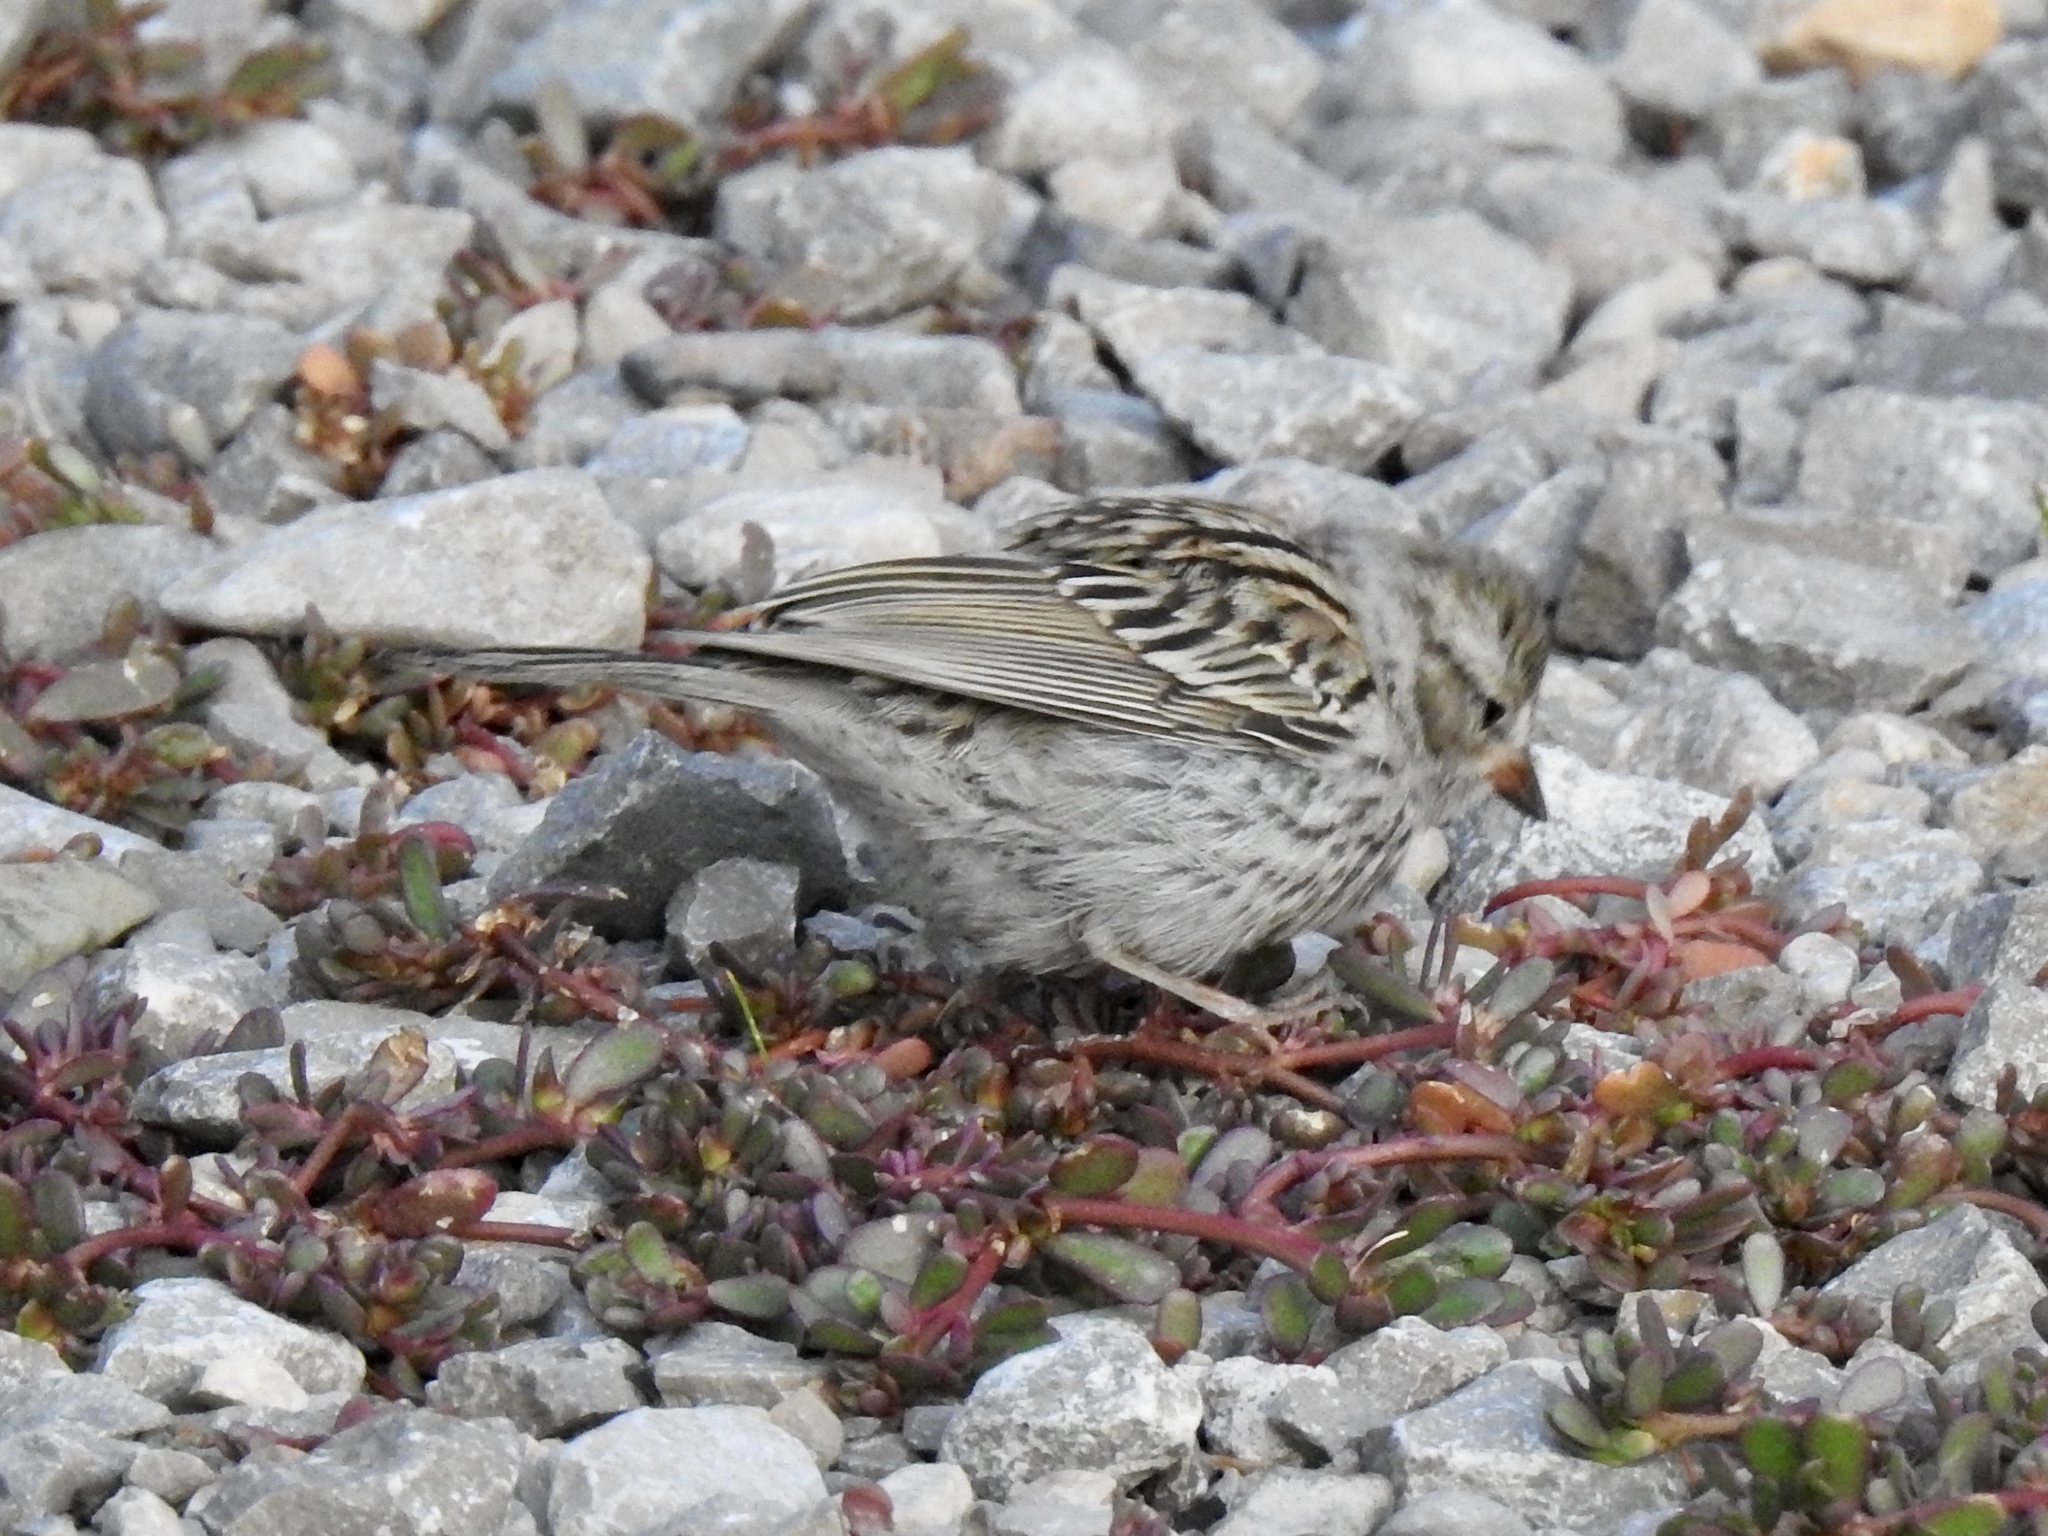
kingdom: Animalia
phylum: Chordata
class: Aves
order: Passeriformes
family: Passerellidae
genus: Spizella
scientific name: Spizella passerina
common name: Chipping sparrow
